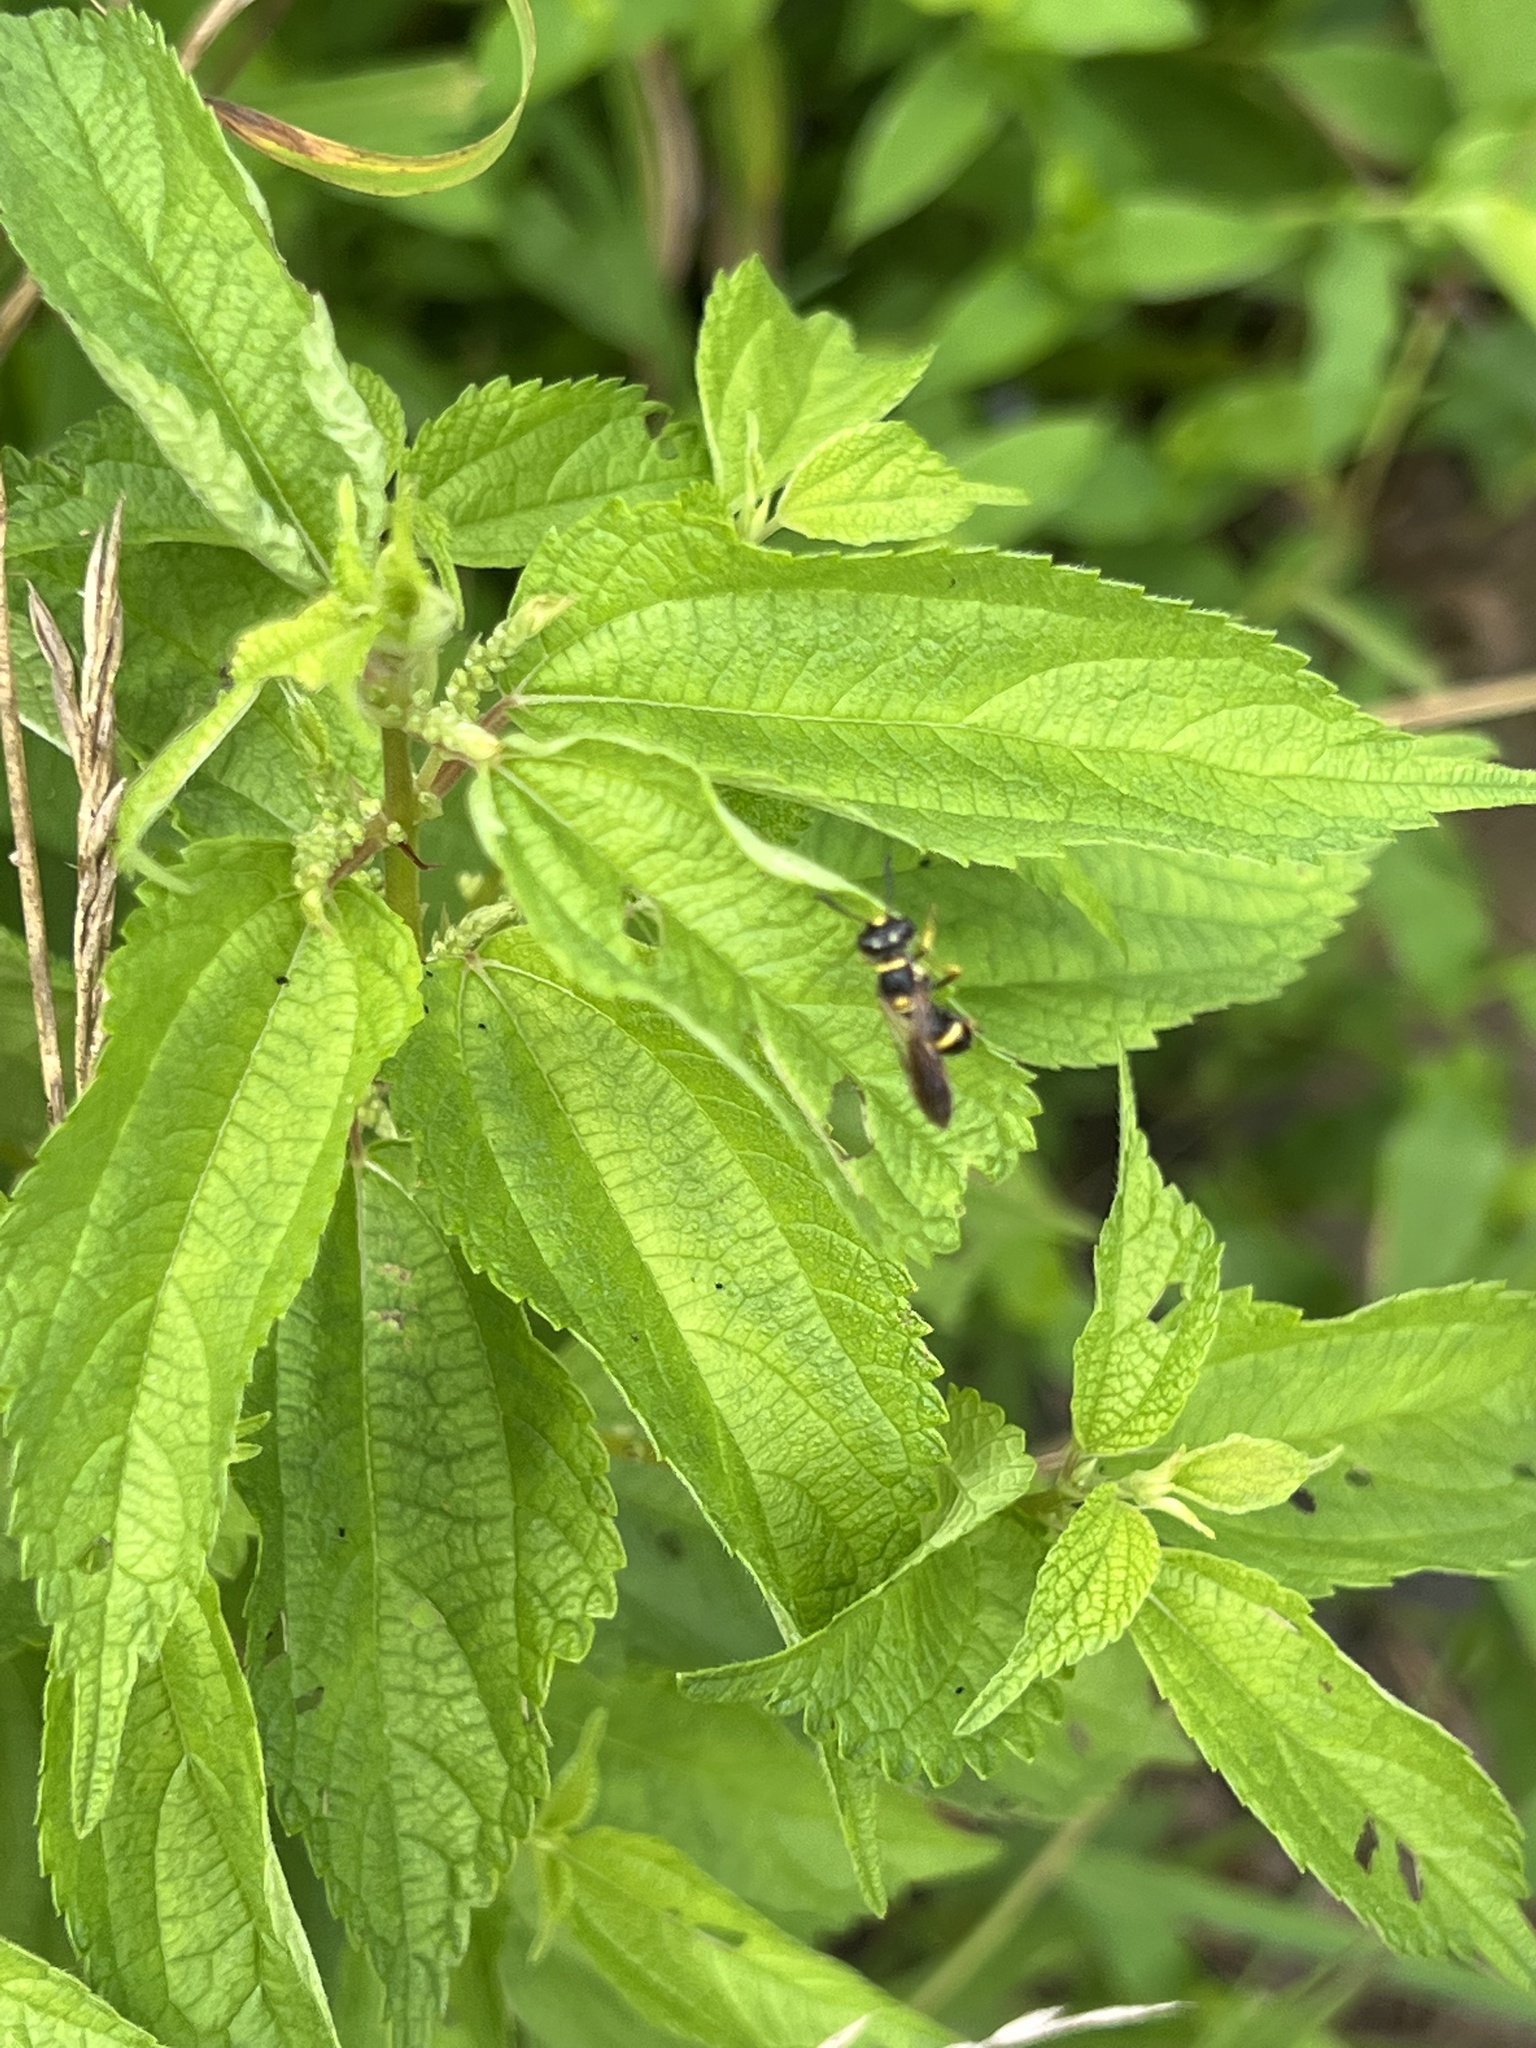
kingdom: Animalia
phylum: Arthropoda
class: Insecta
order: Hymenoptera
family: Crabronidae
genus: Philanthus
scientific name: Philanthus gibbosus
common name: Humped beewolf
